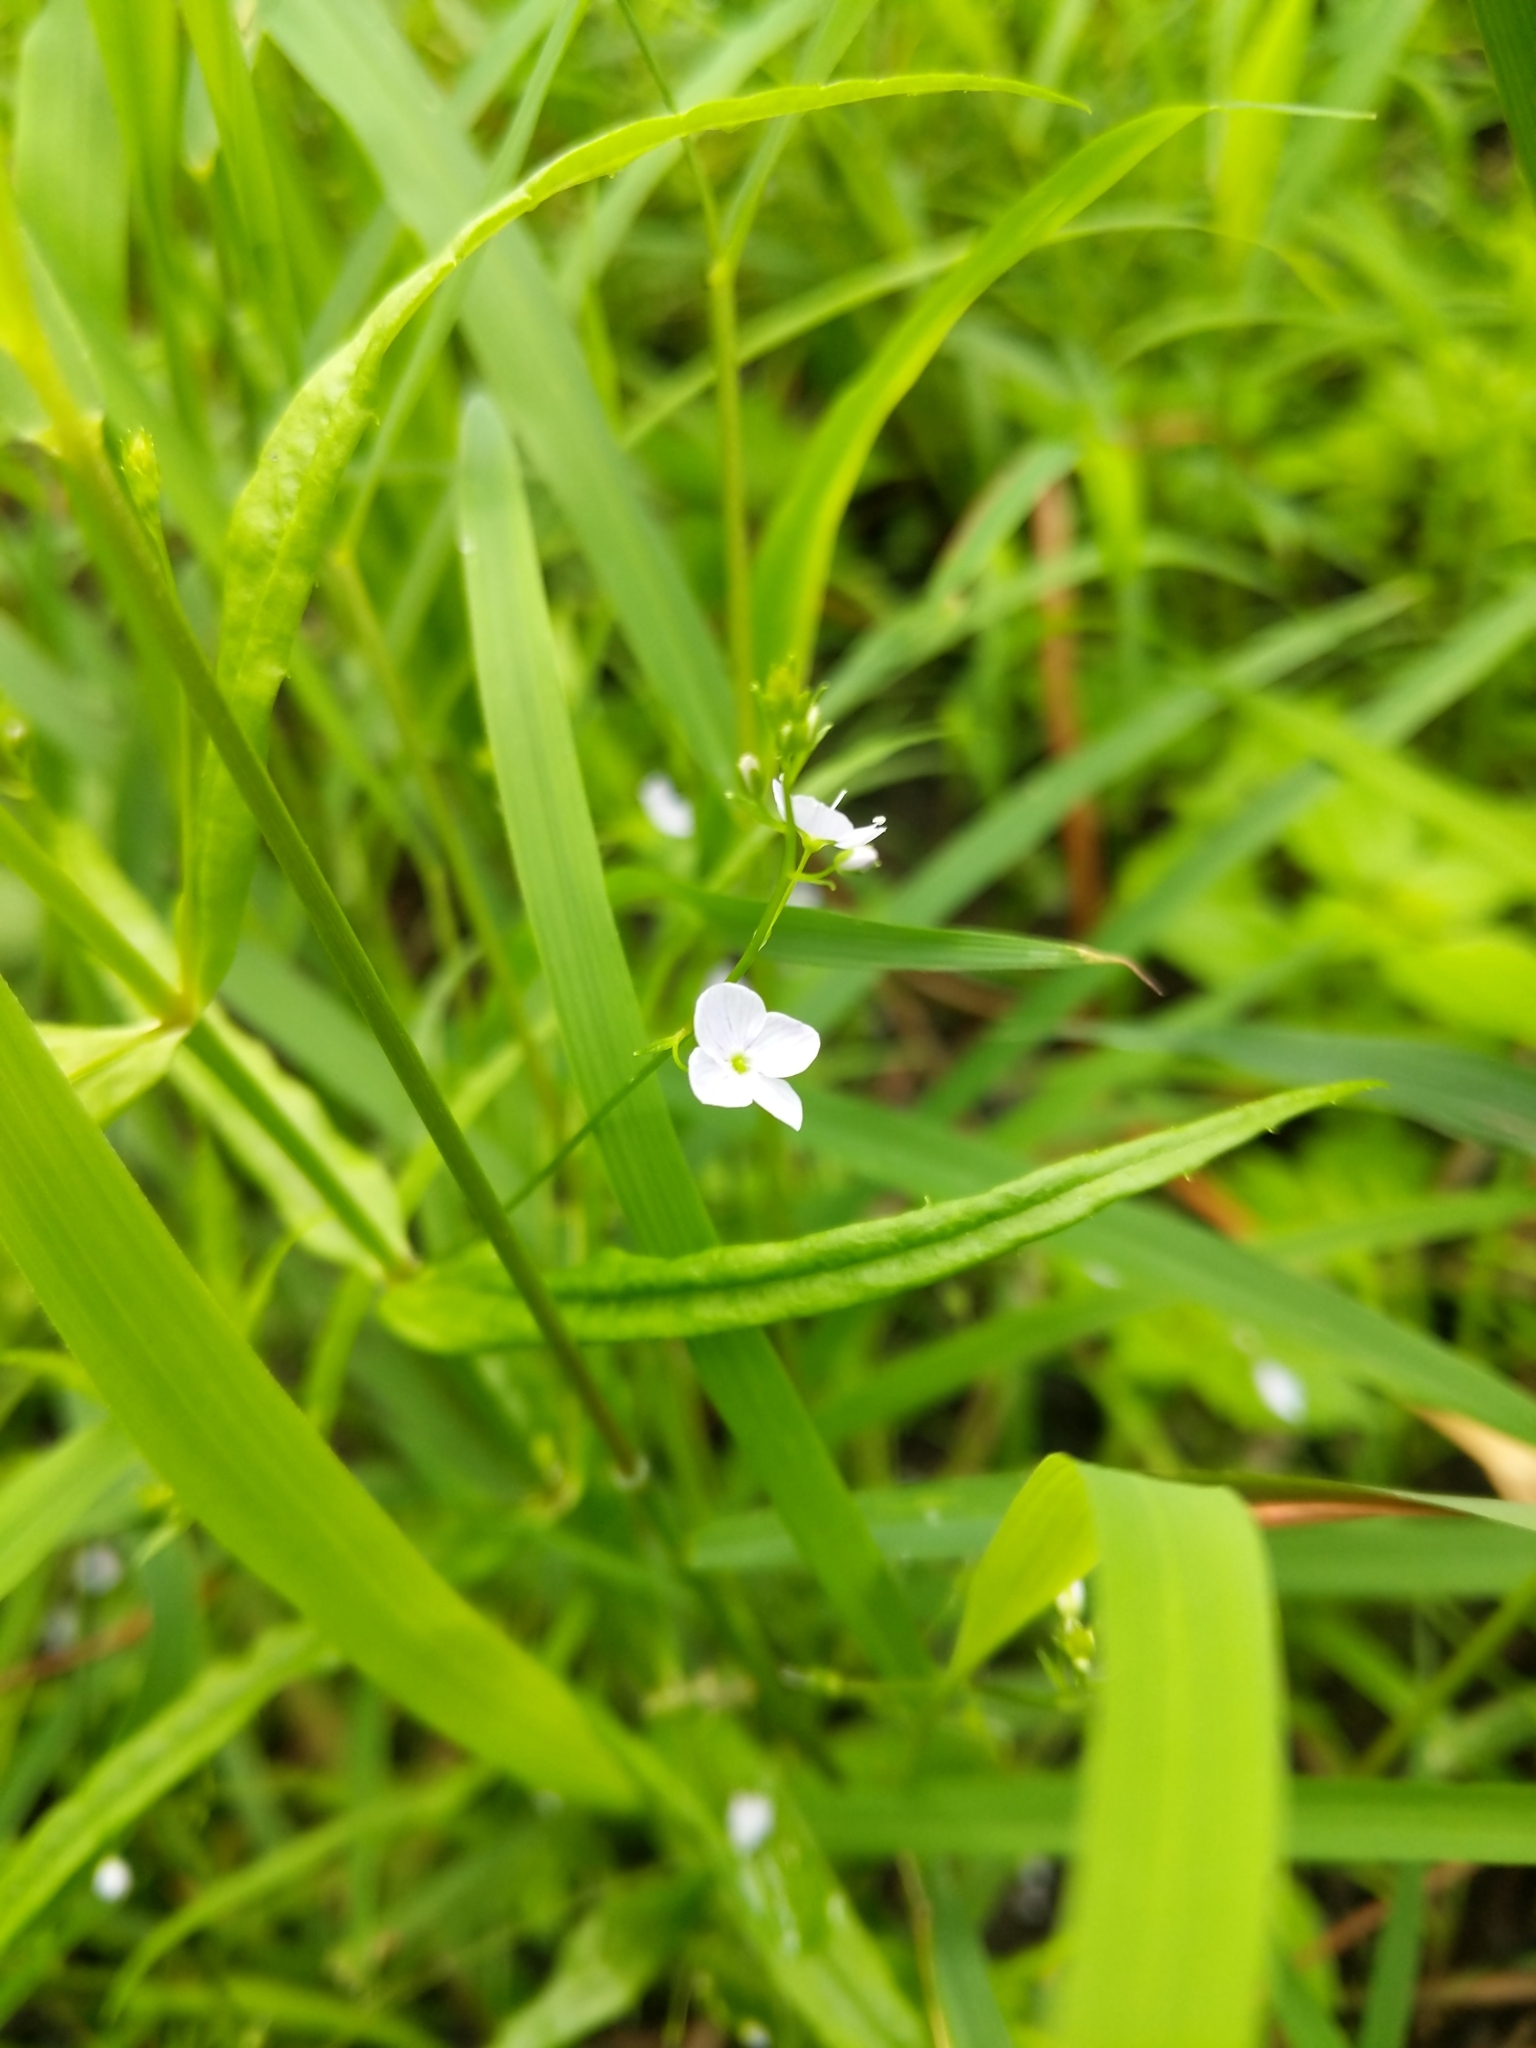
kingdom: Plantae
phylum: Tracheophyta
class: Magnoliopsida
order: Lamiales
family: Plantaginaceae
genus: Veronica
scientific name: Veronica scutellata
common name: Marsh speedwell
